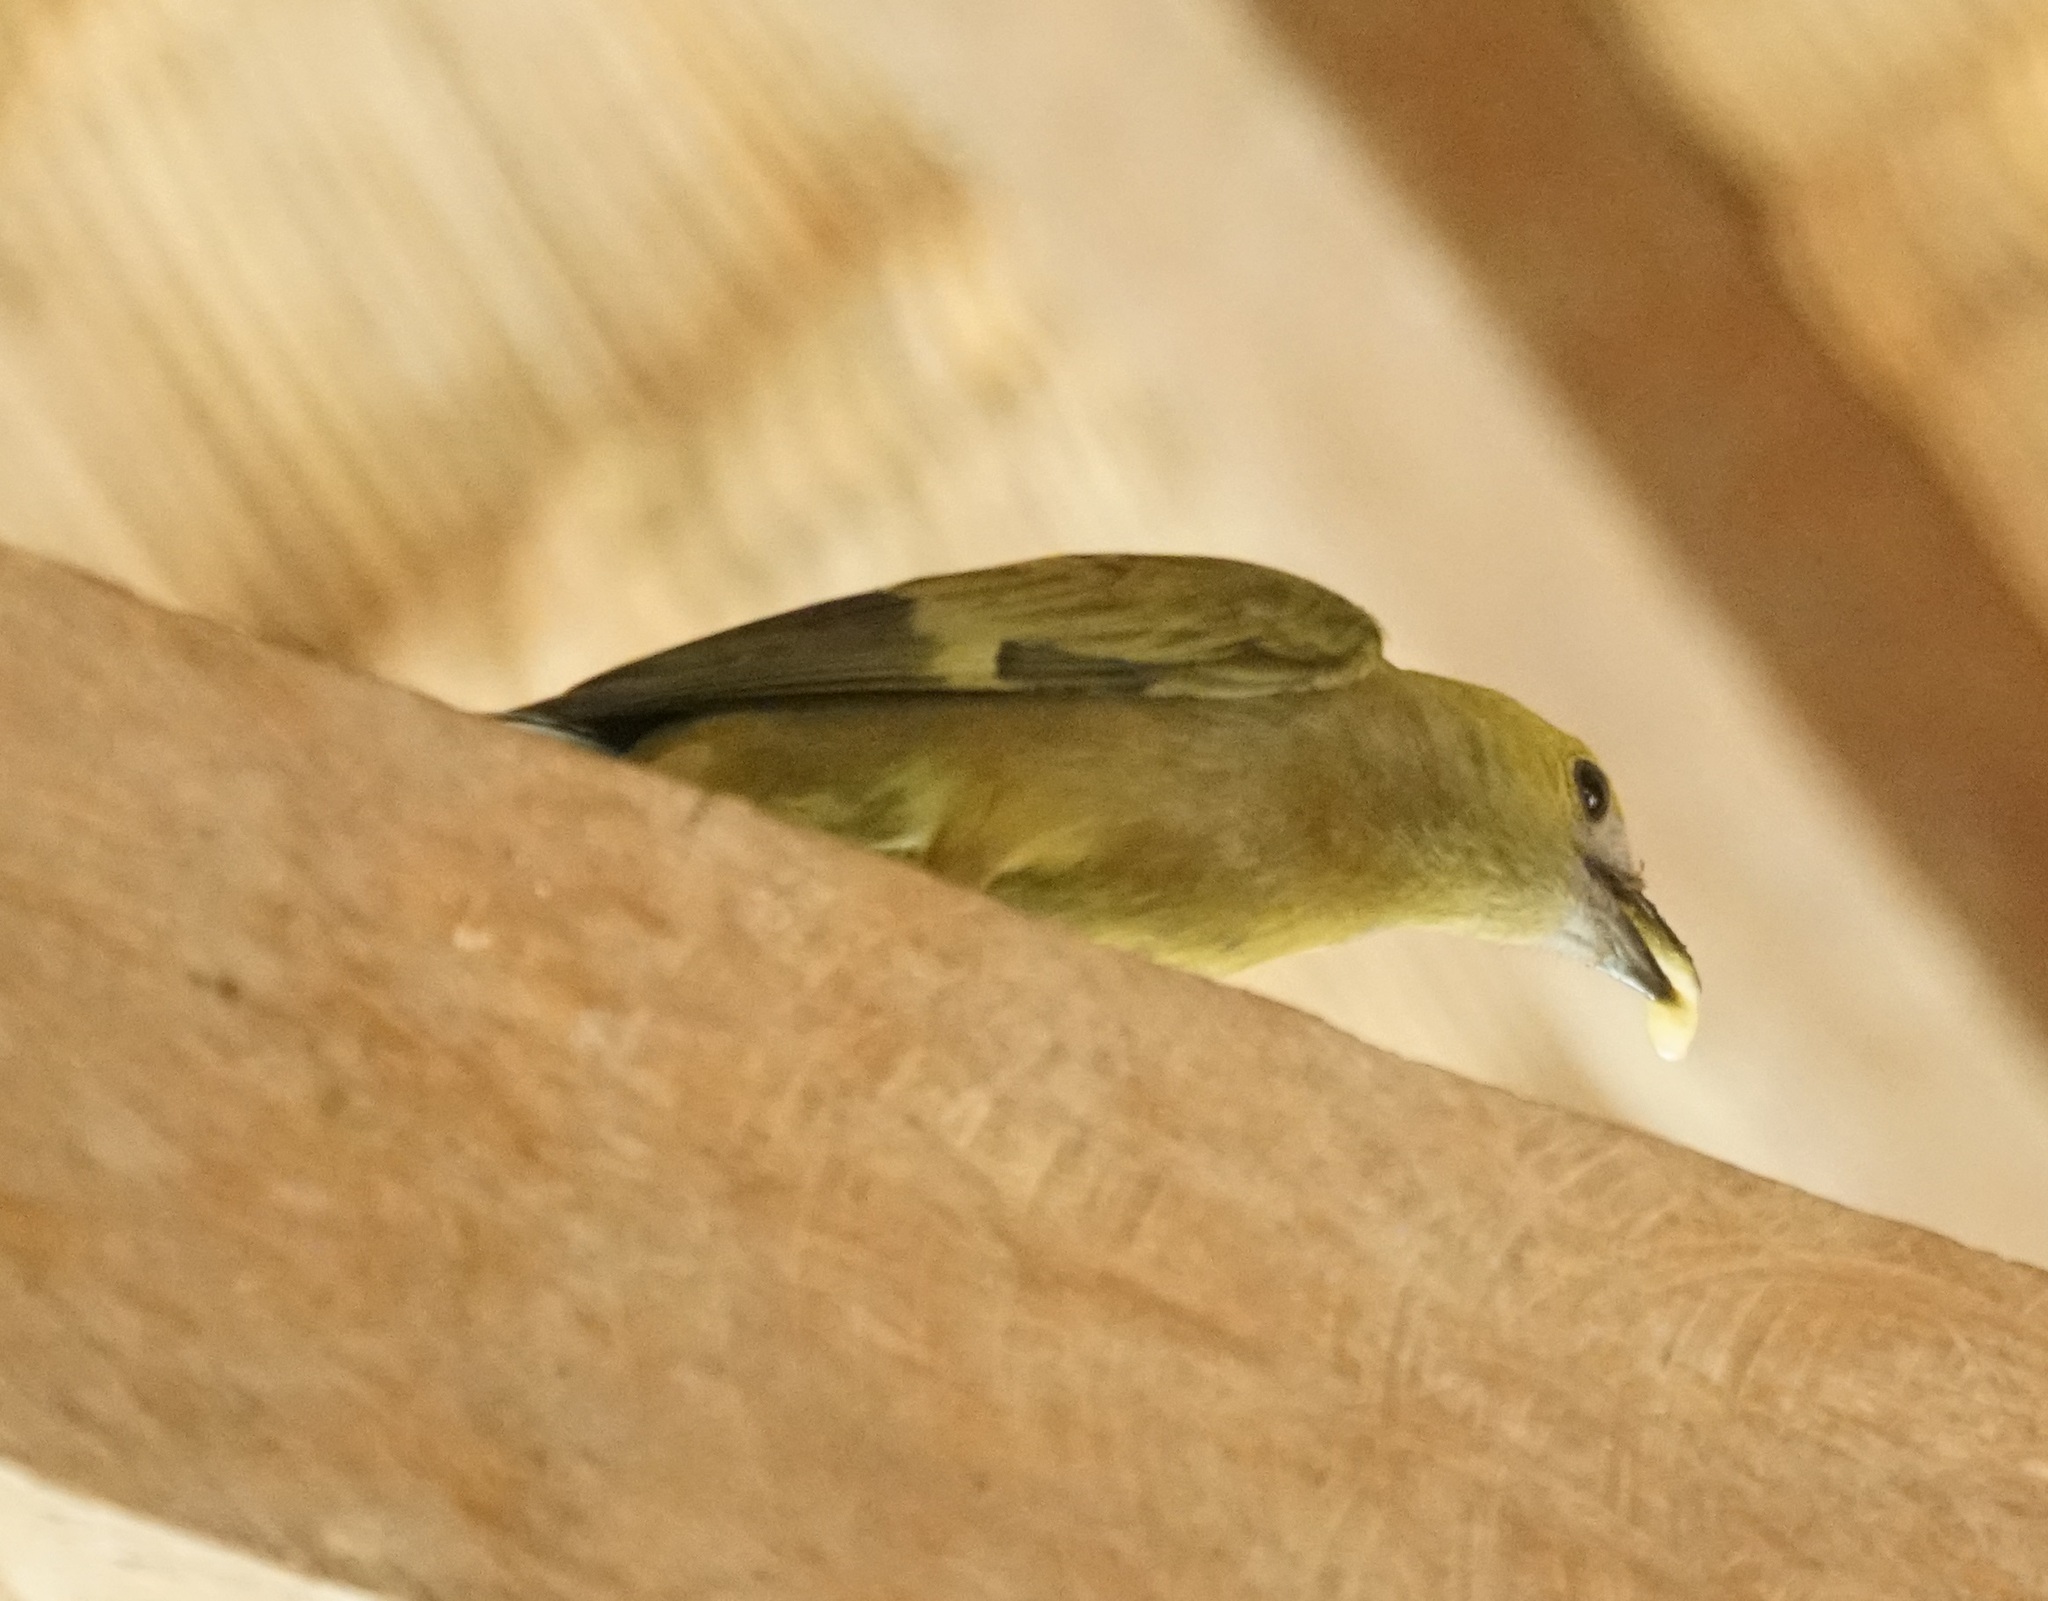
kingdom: Animalia
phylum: Chordata
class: Aves
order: Passeriformes
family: Thraupidae
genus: Thraupis
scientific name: Thraupis palmarum
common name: Palm tanager
